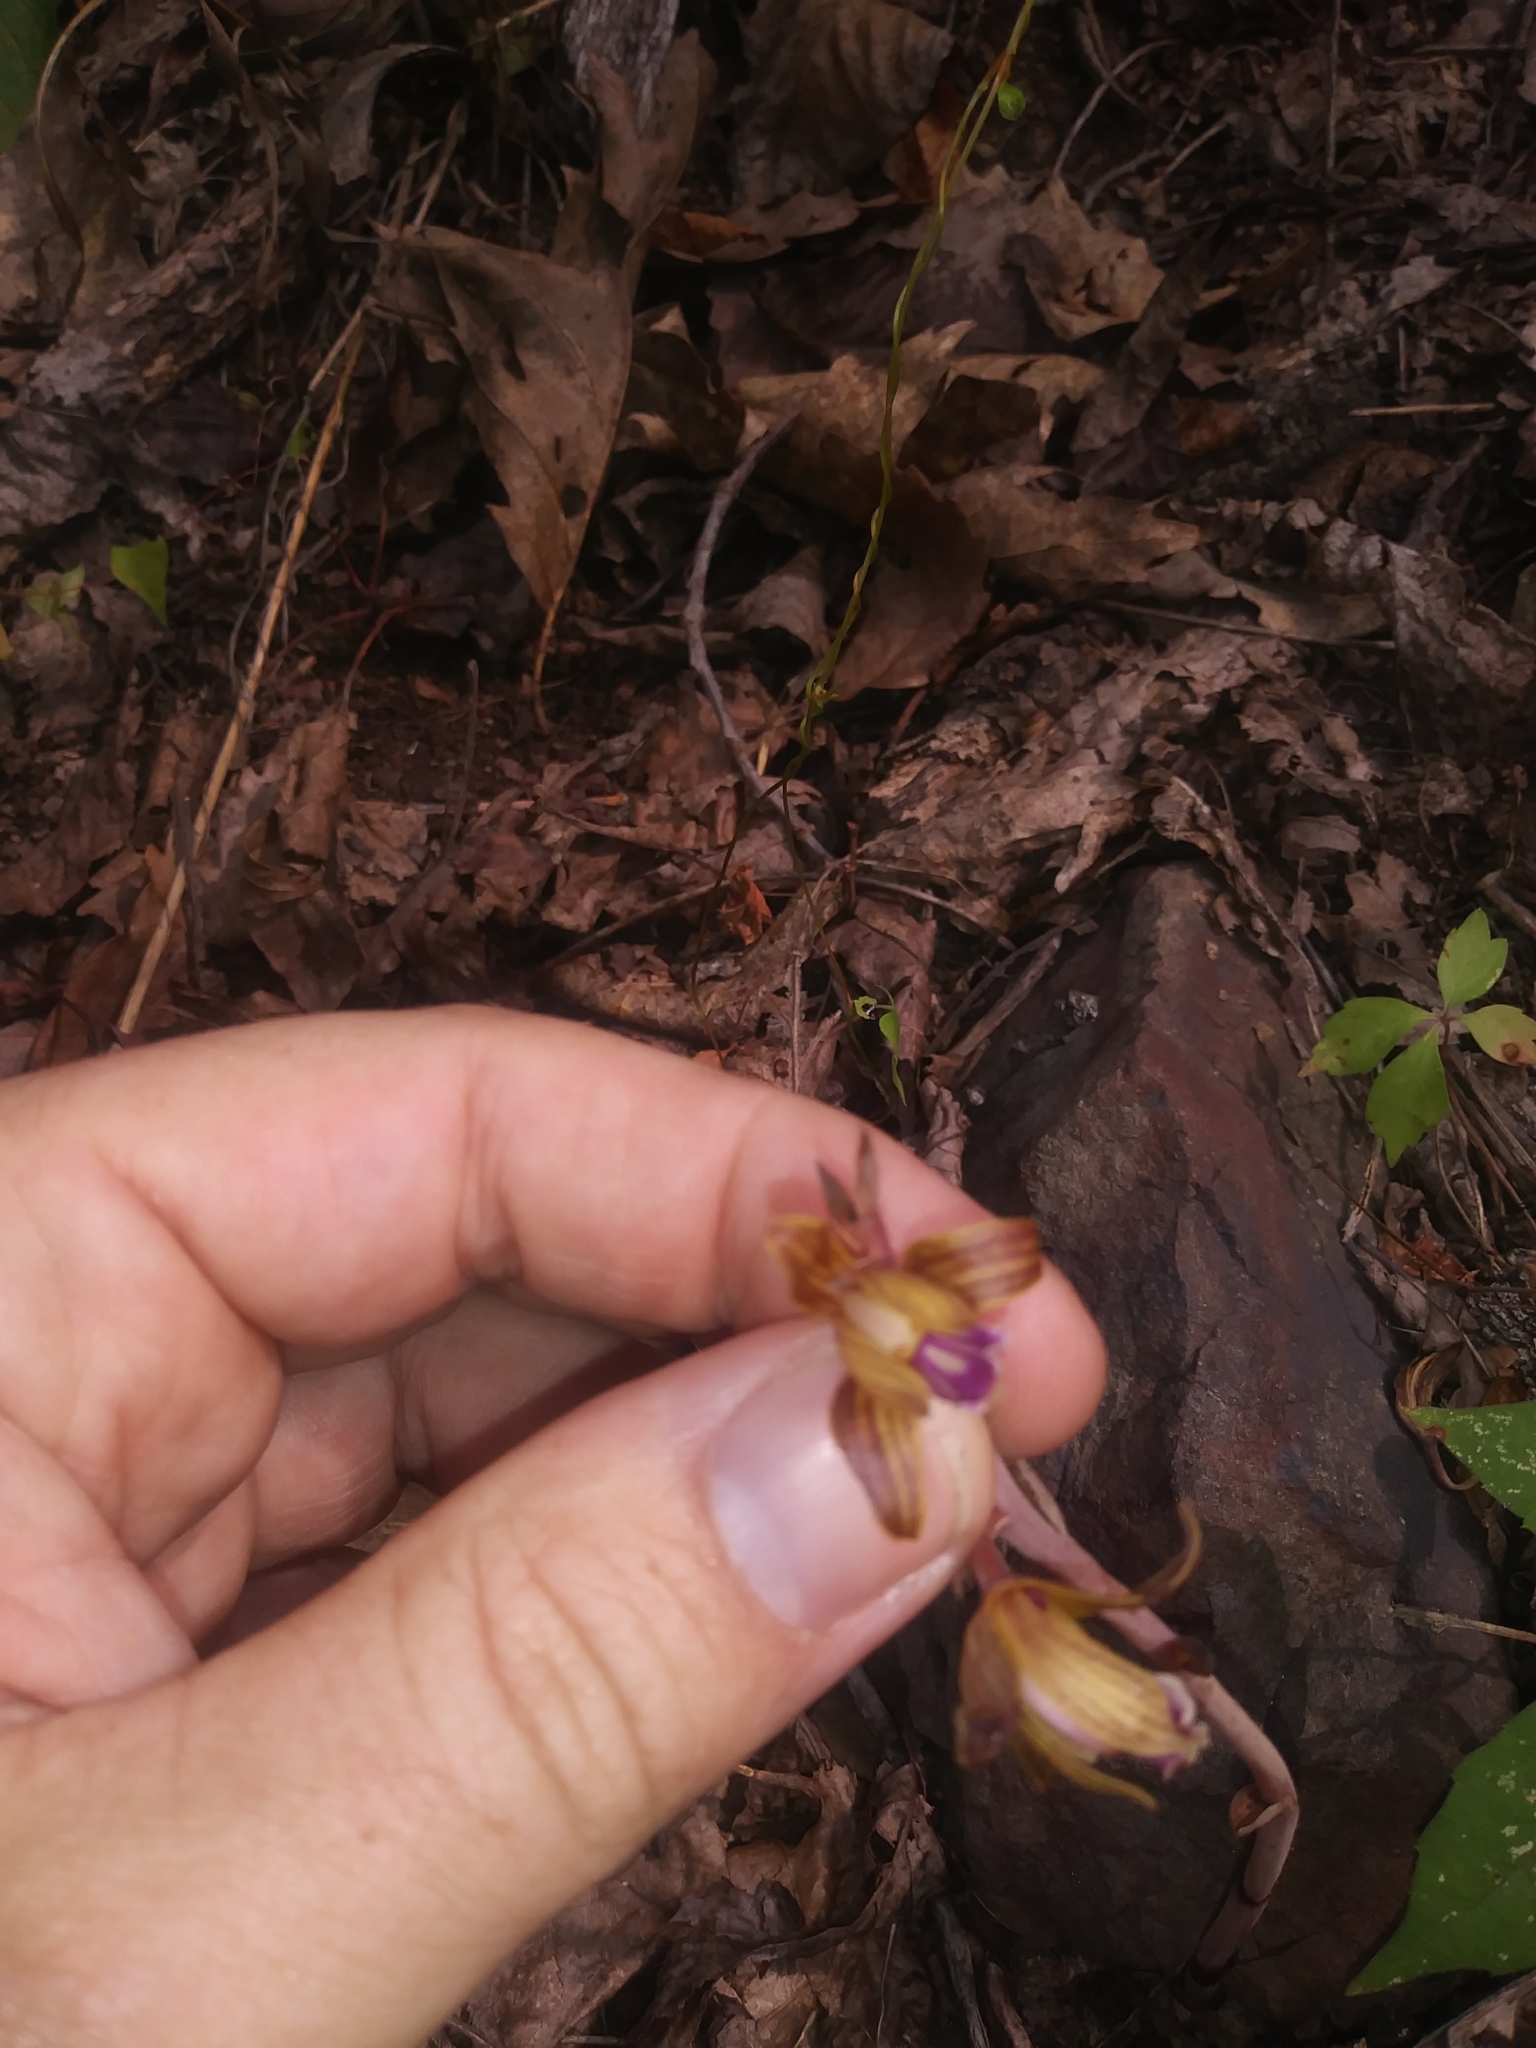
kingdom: Plantae
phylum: Tracheophyta
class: Liliopsida
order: Asparagales
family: Orchidaceae
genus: Bletia
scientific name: Bletia spicata
